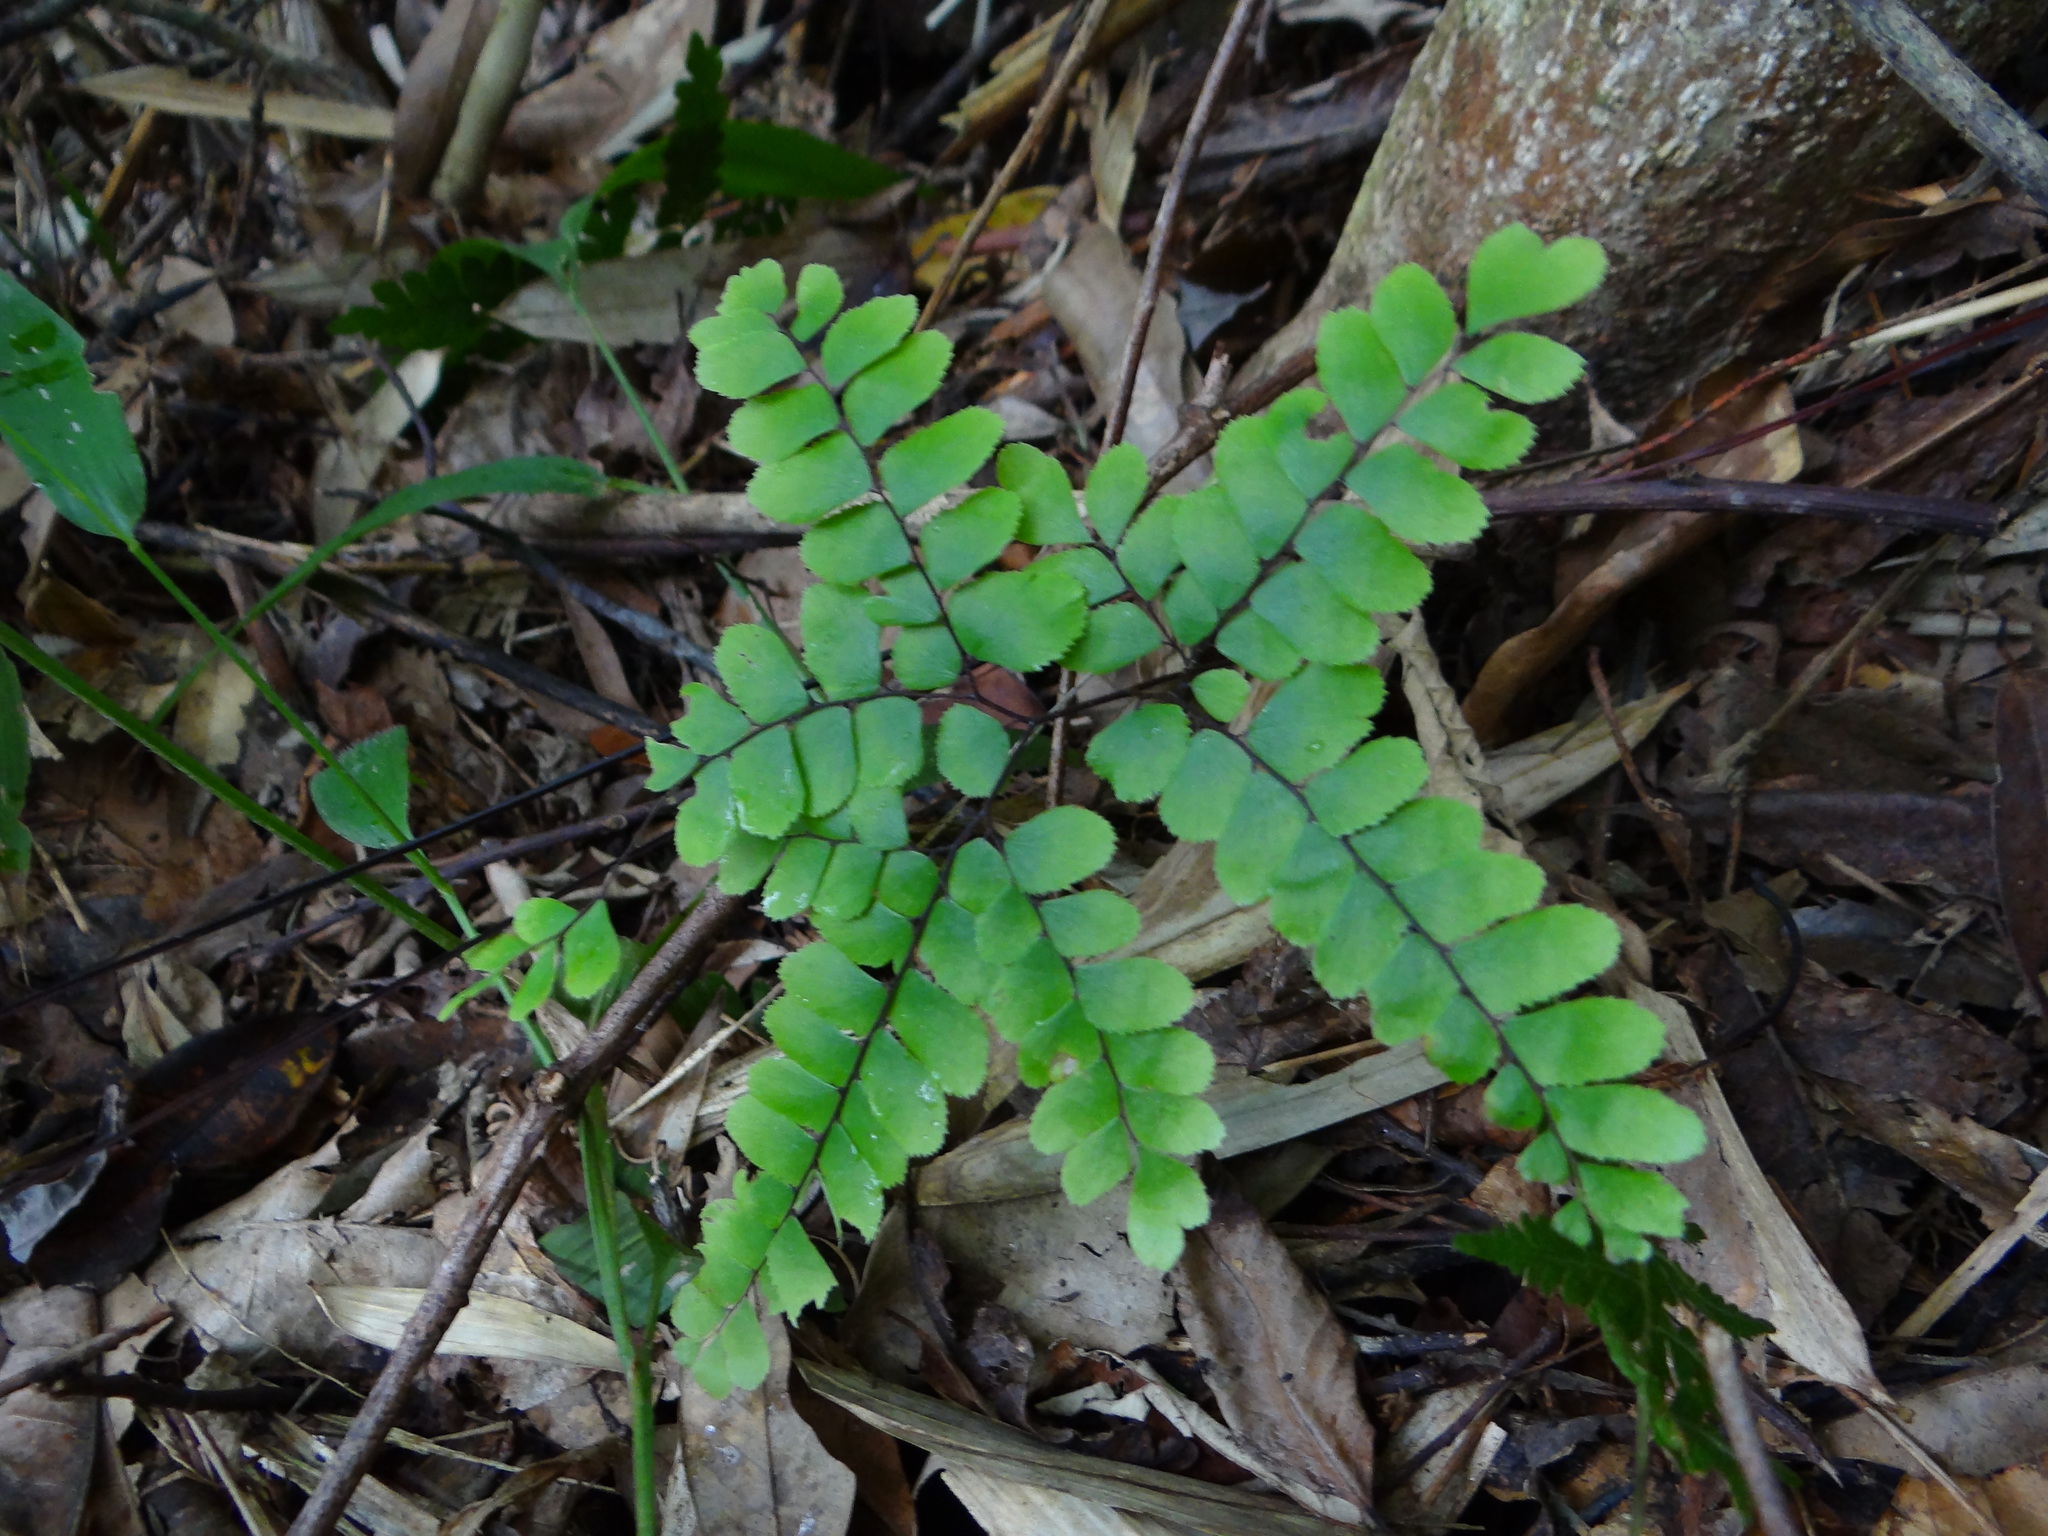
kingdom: Plantae
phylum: Tracheophyta
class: Polypodiopsida
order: Polypodiales
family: Pteridaceae
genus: Adiantum
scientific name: Adiantum flabellulatum
